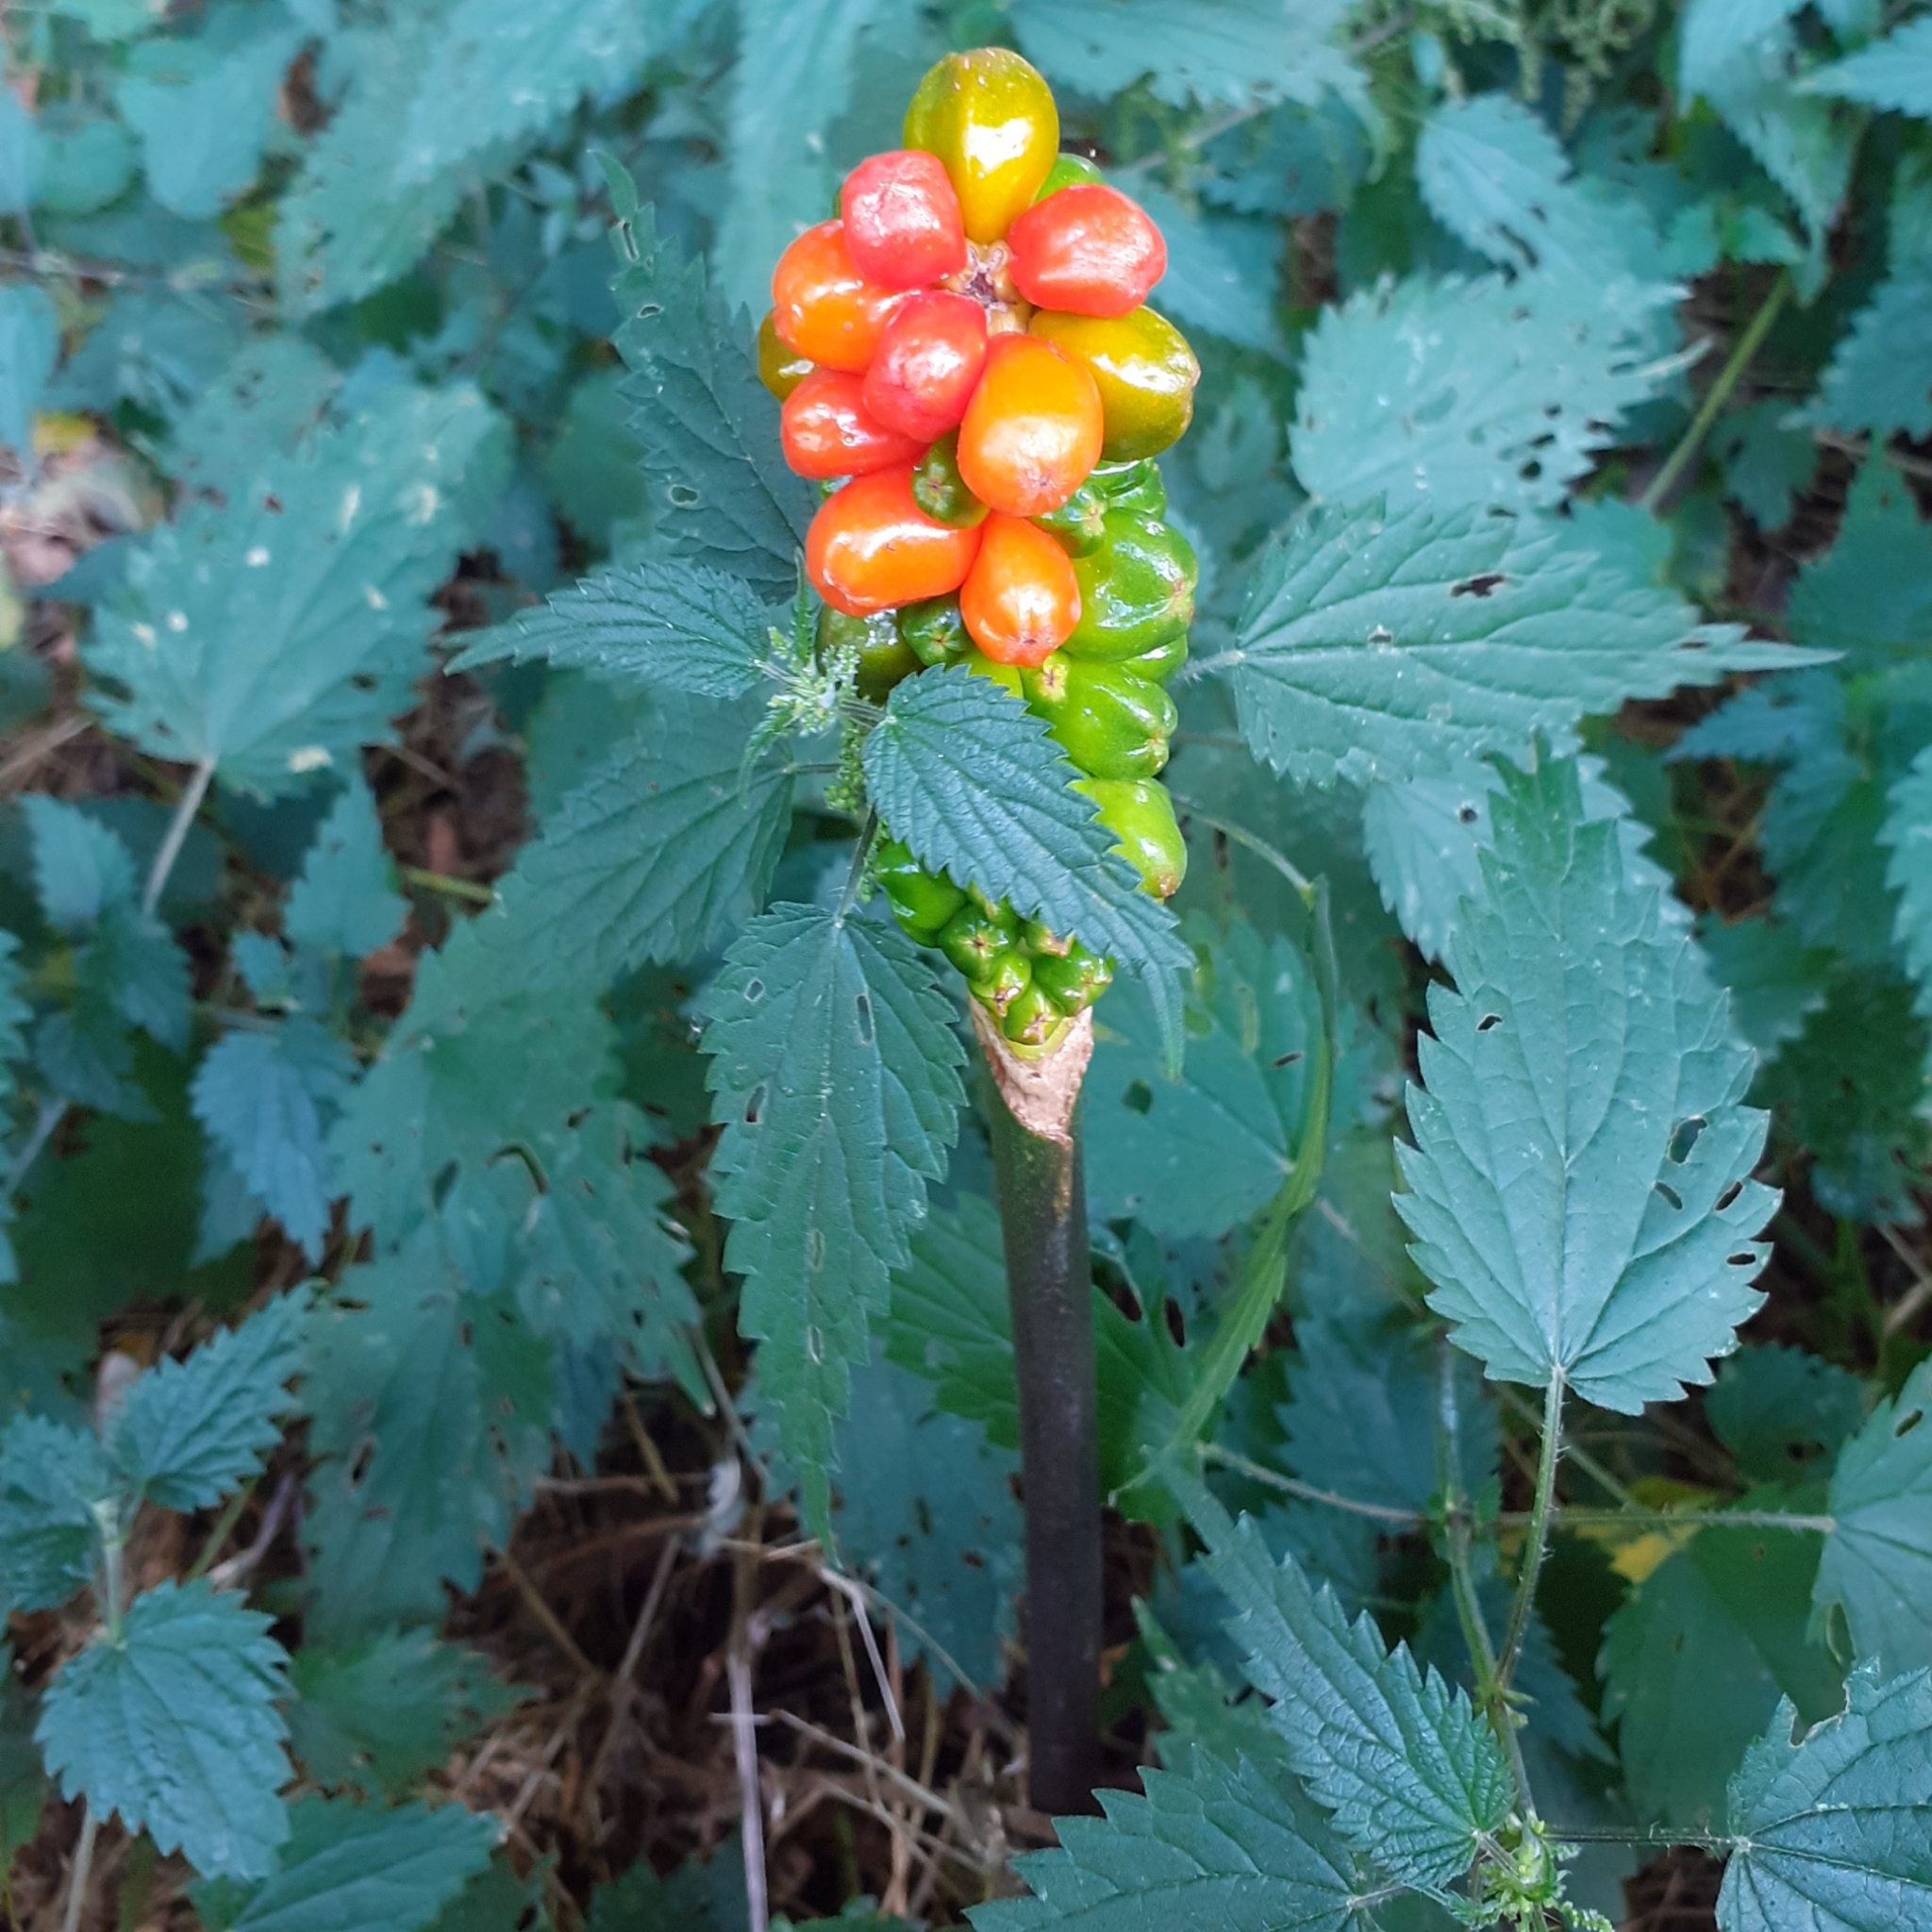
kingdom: Plantae
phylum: Tracheophyta
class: Liliopsida
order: Alismatales
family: Araceae
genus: Arum
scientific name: Arum
